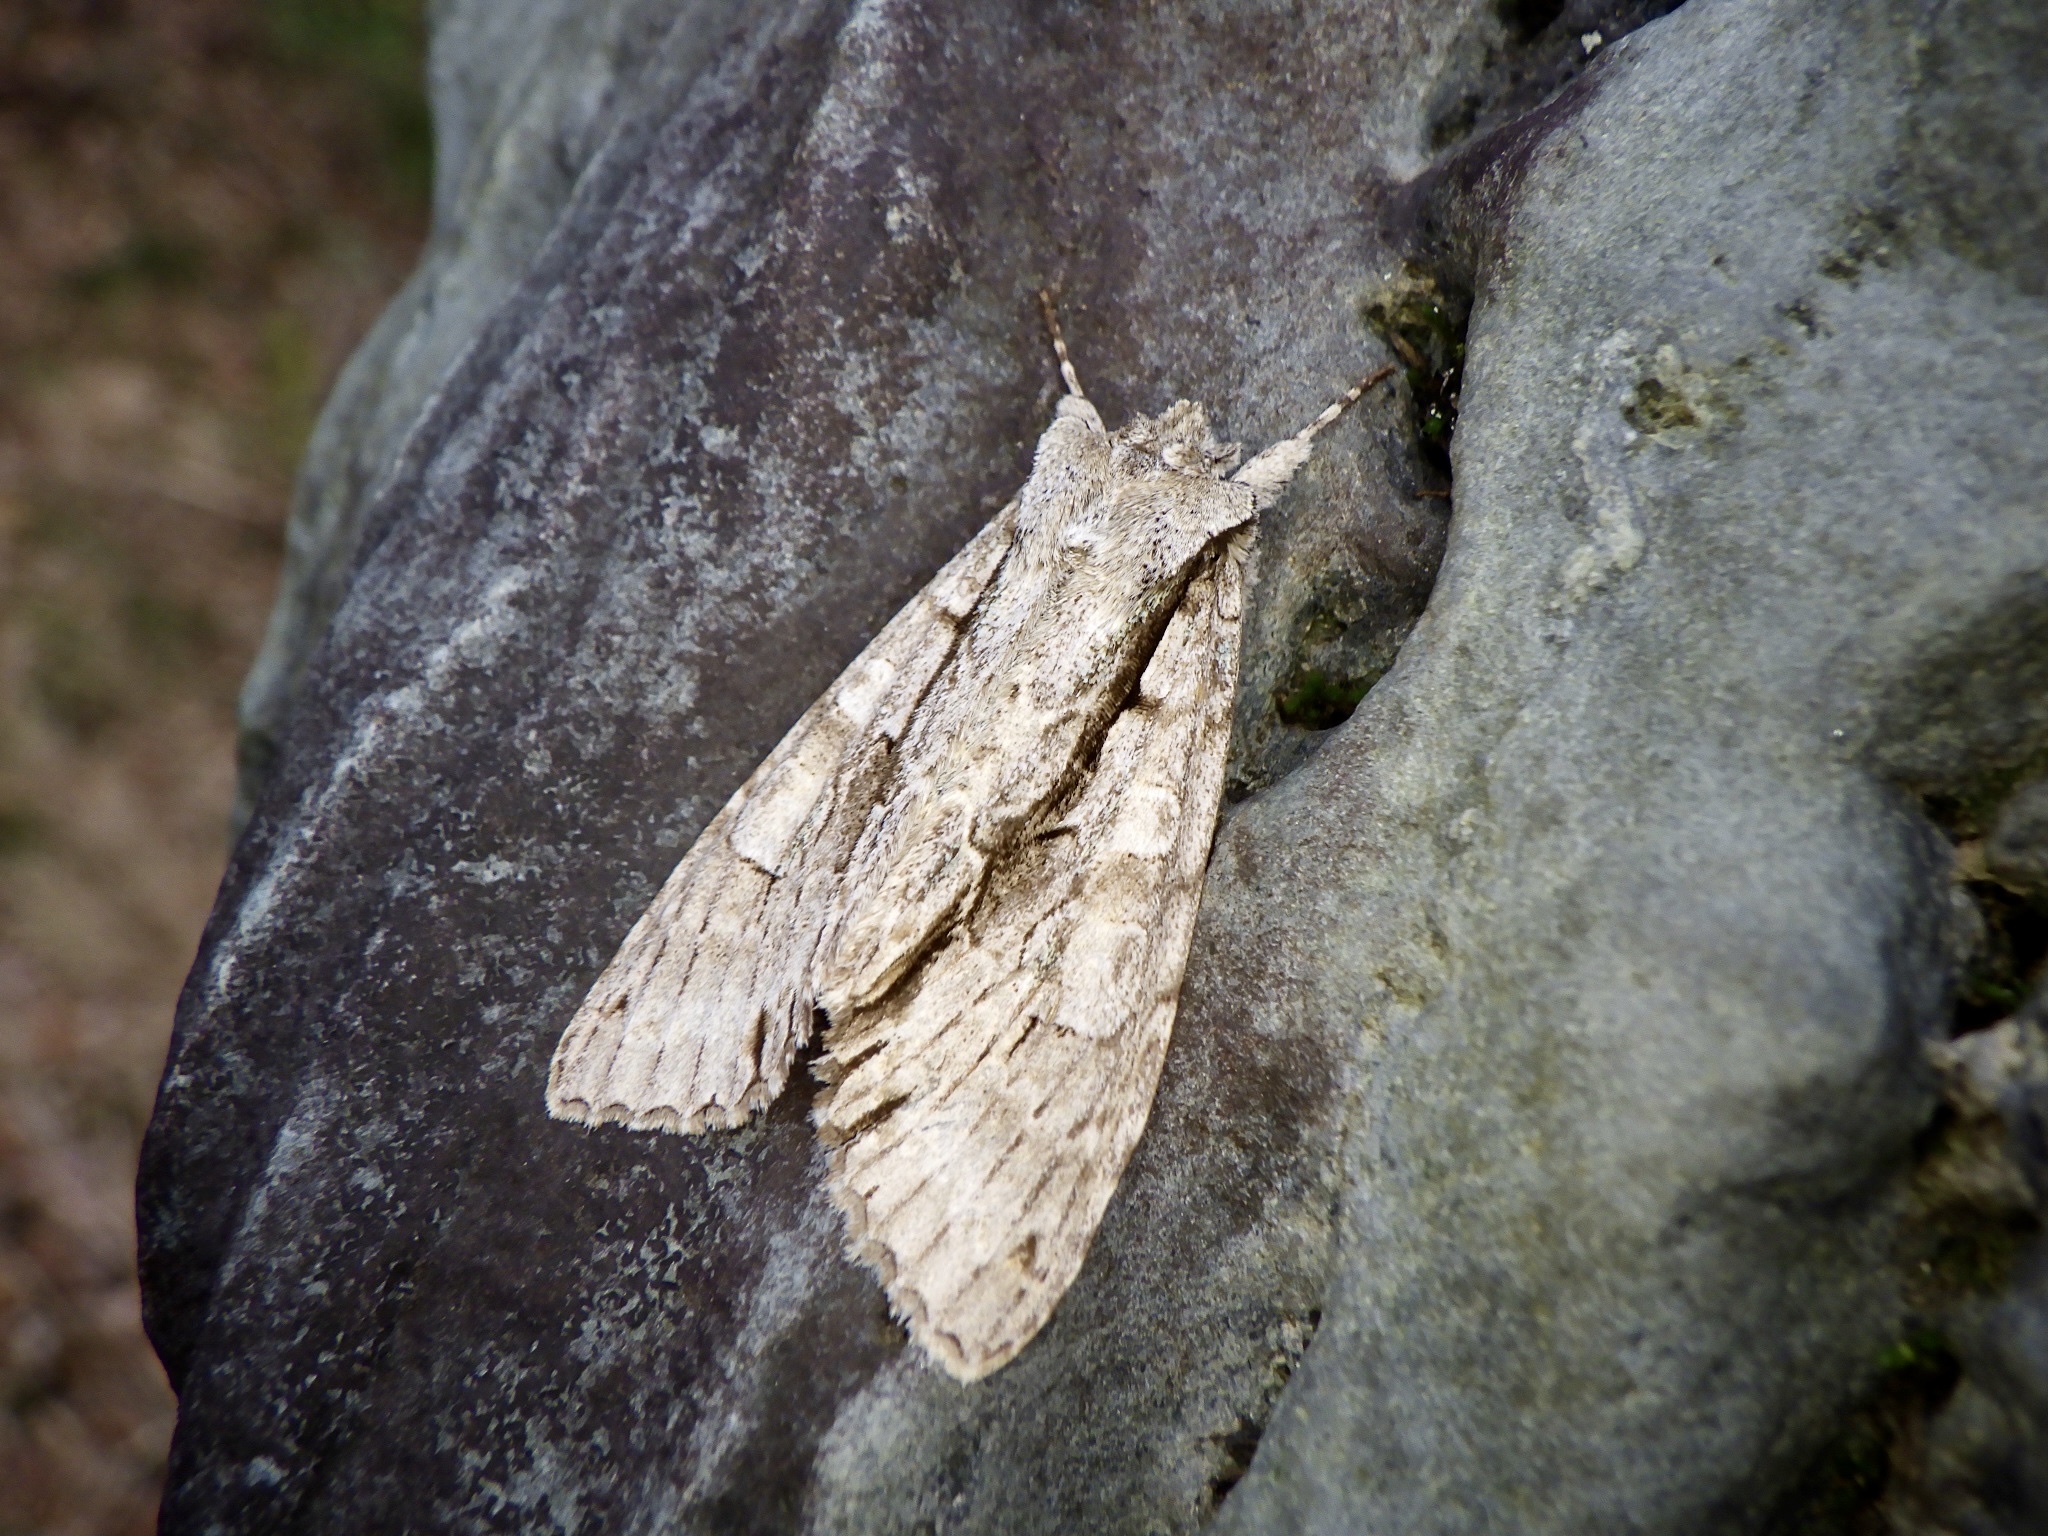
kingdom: Animalia
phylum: Arthropoda
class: Insecta
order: Lepidoptera
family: Noctuidae
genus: Meganephria
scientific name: Meganephria
